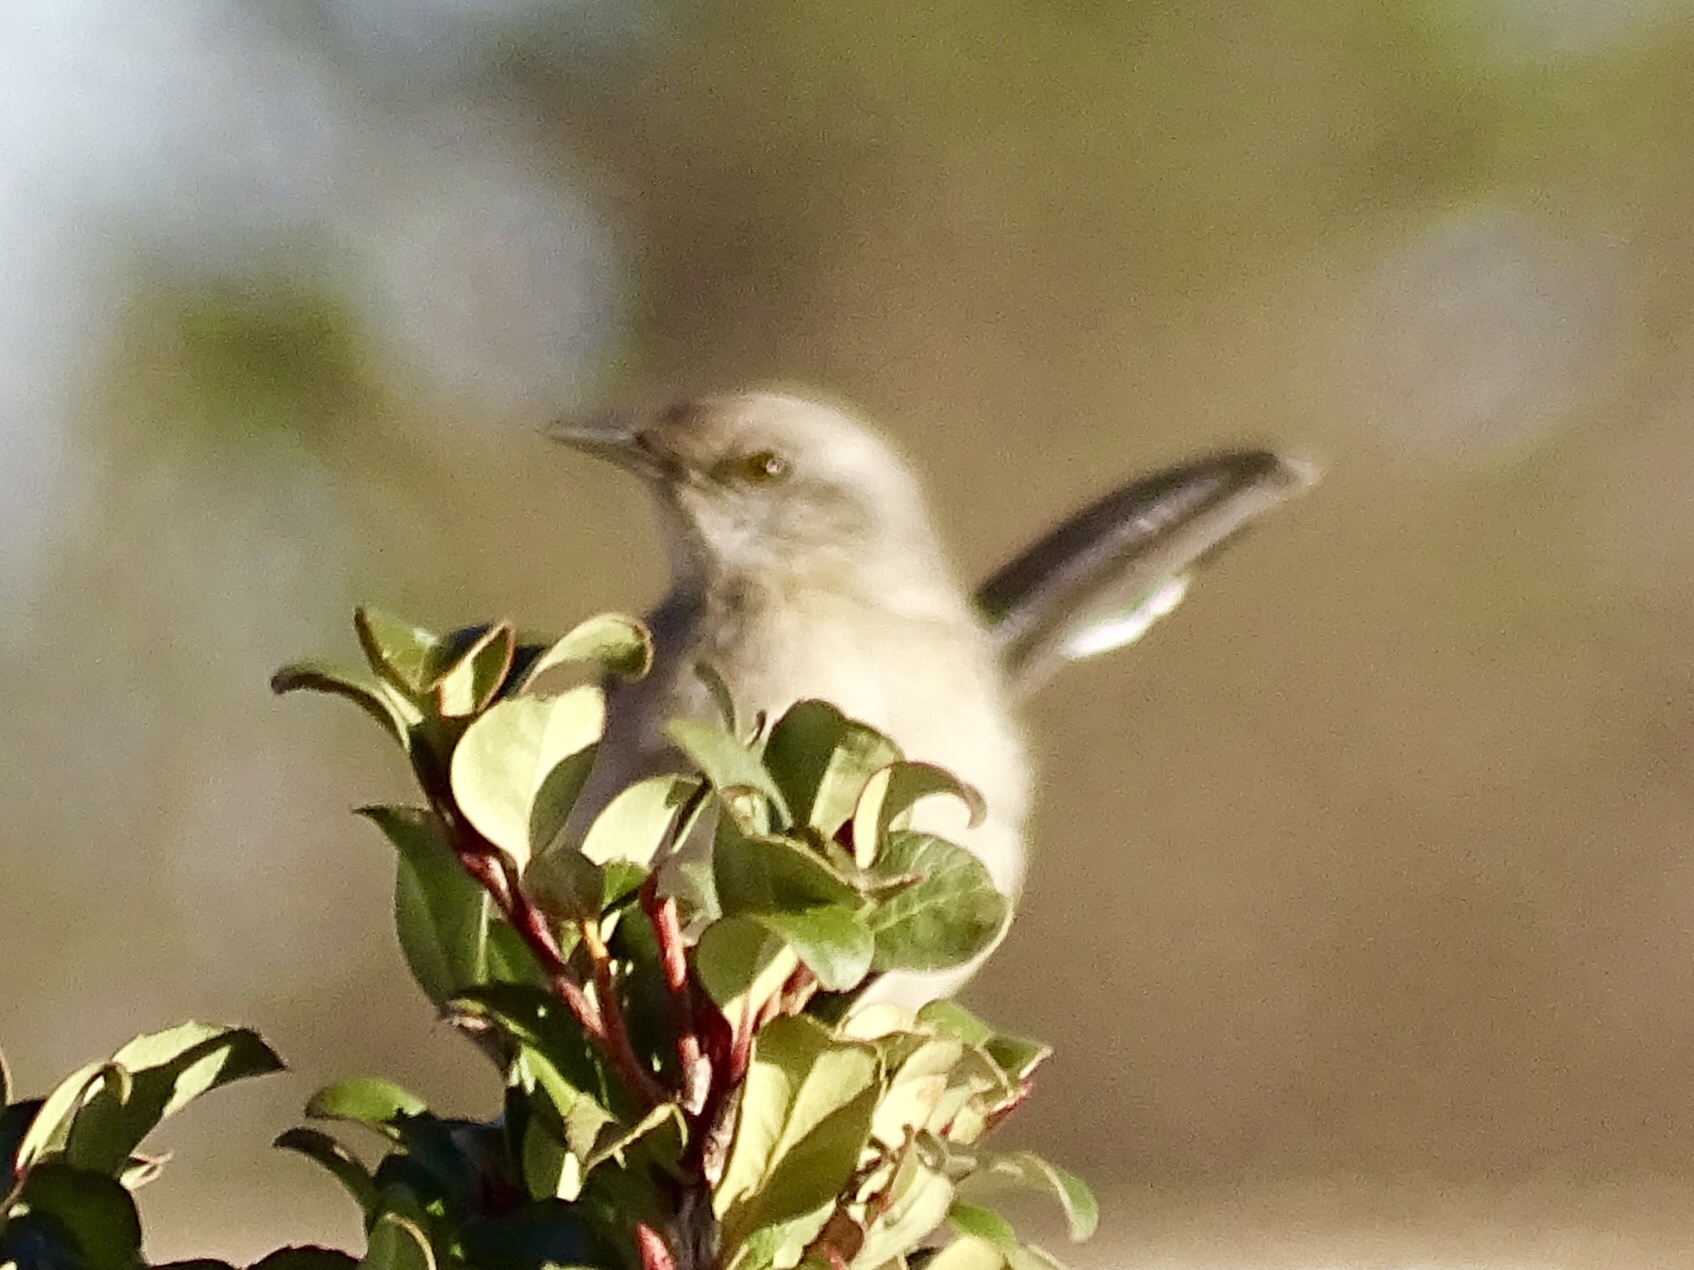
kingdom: Animalia
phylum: Chordata
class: Aves
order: Passeriformes
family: Mimidae
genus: Mimus
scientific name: Mimus polyglottos
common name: Northern mockingbird
